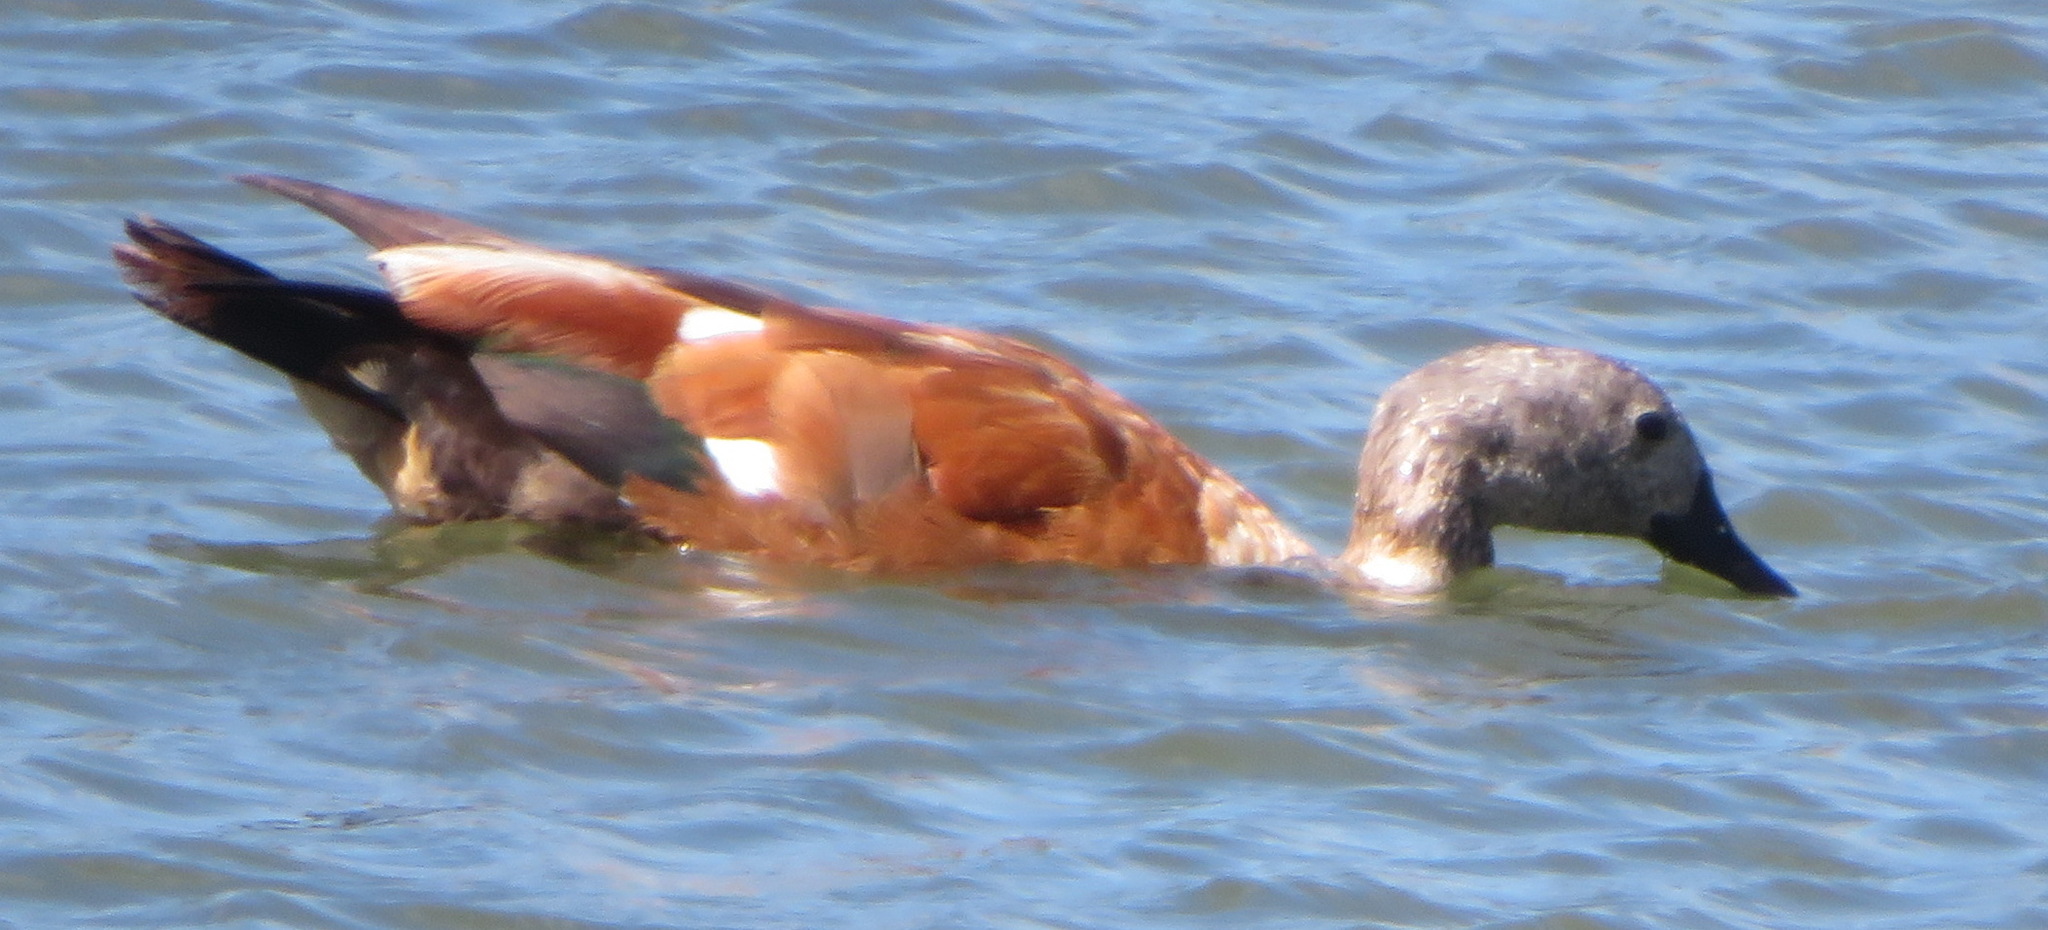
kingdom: Animalia
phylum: Chordata
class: Aves
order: Anseriformes
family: Anatidae
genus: Tadorna
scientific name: Tadorna cana
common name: South african shelduck
